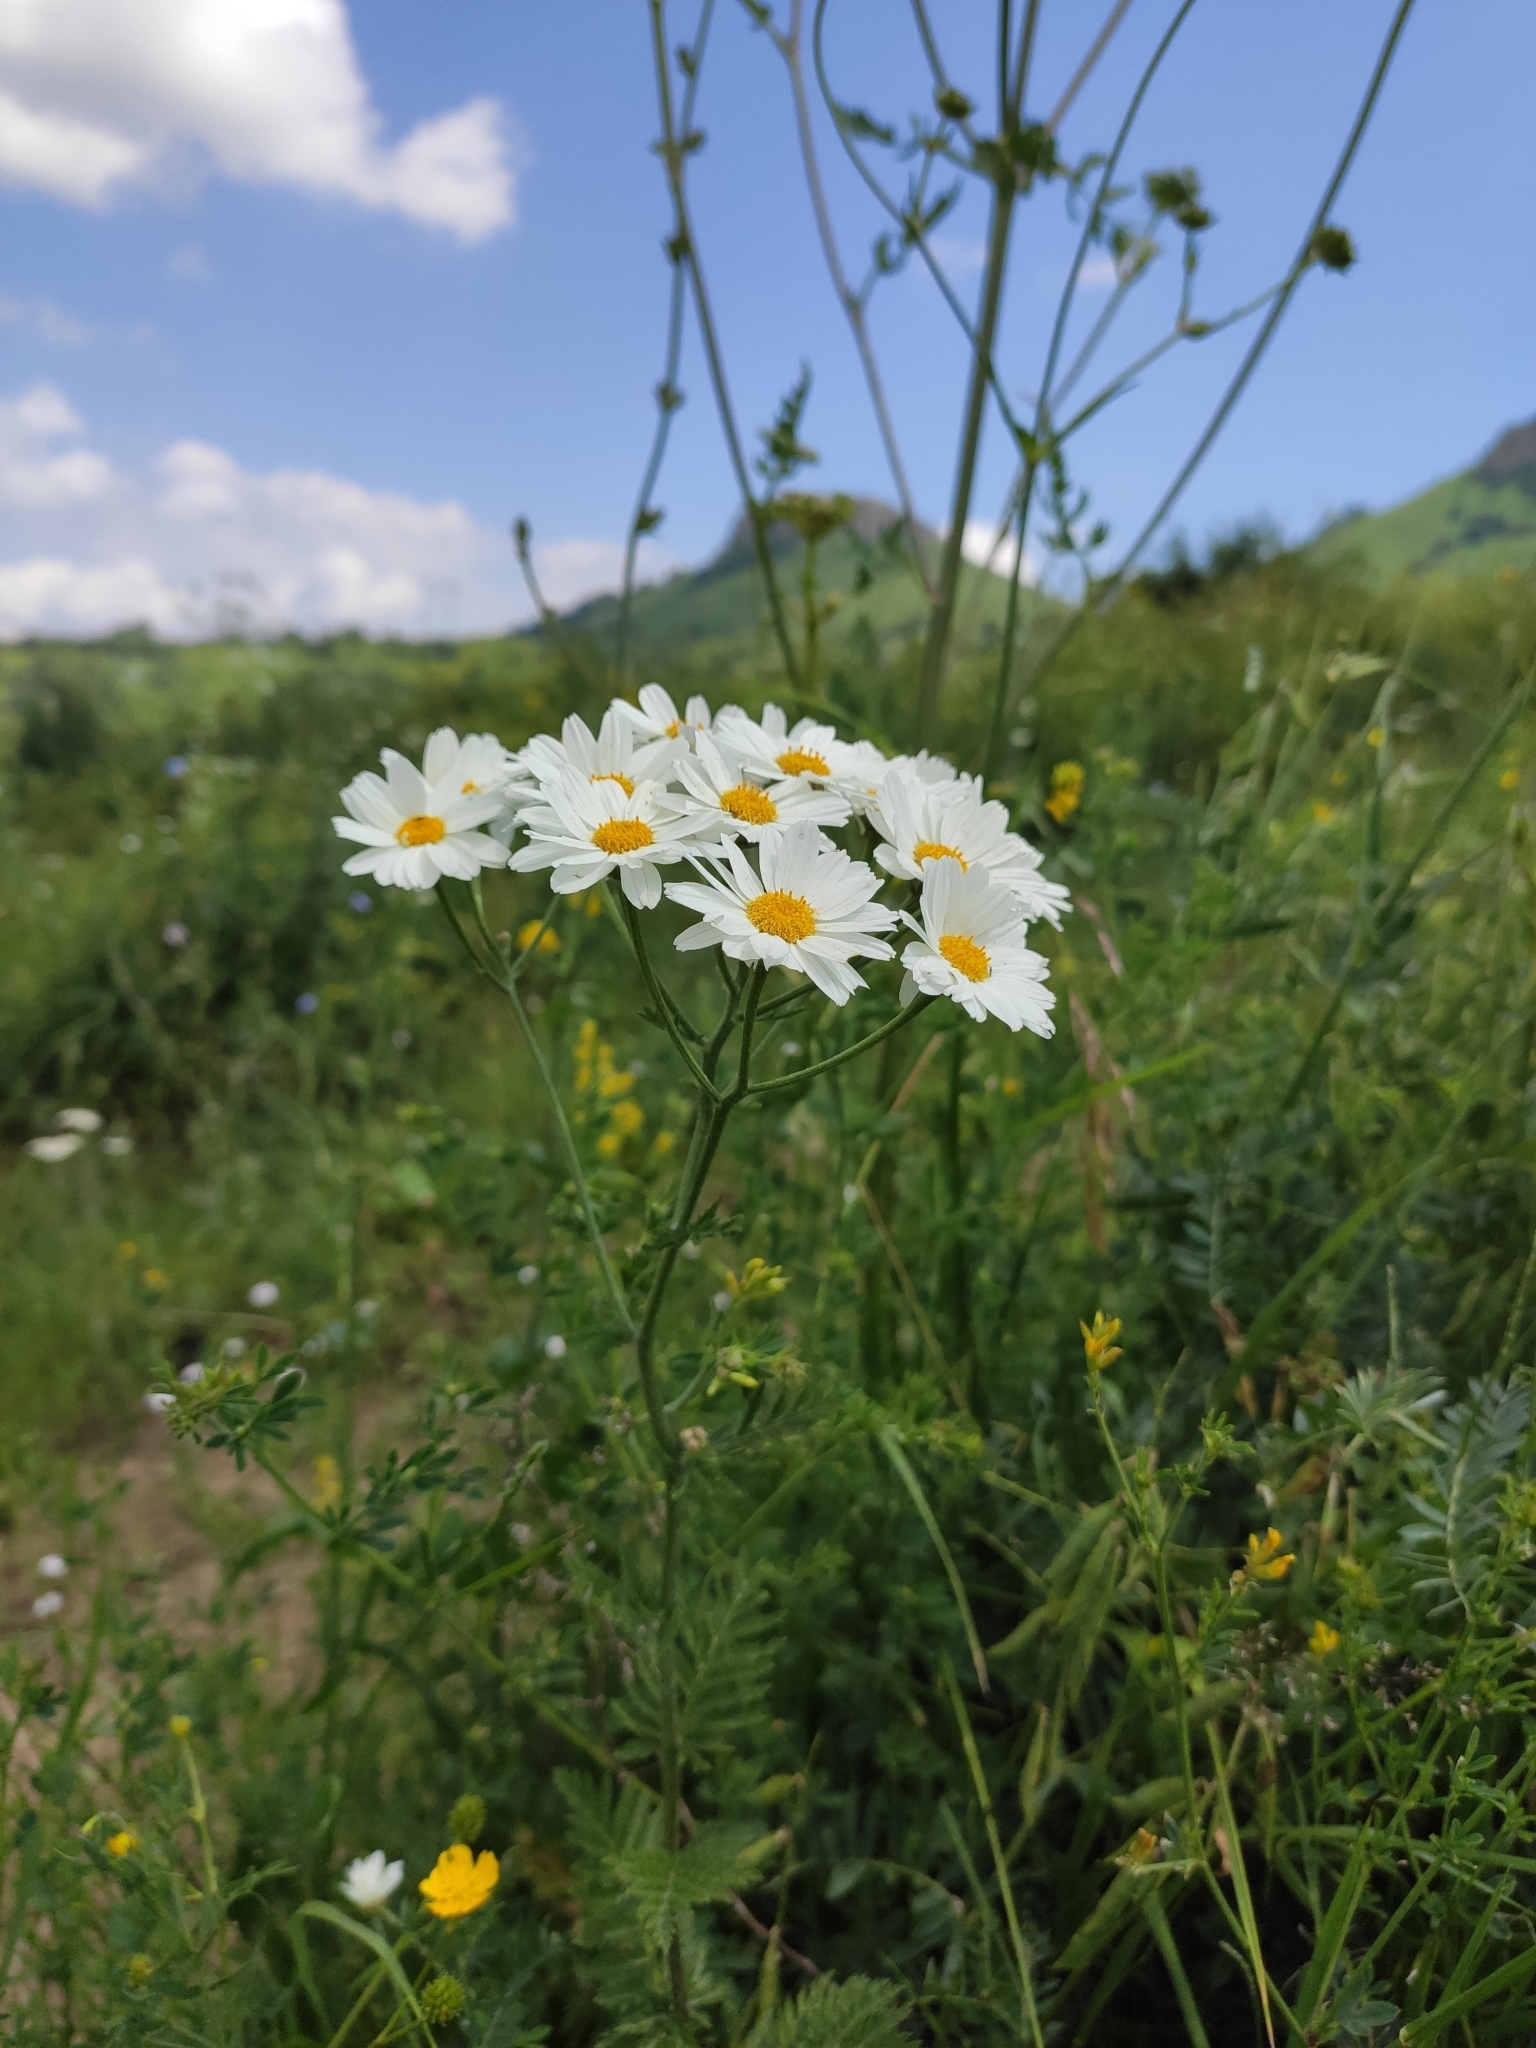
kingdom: Plantae
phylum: Tracheophyta
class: Magnoliopsida
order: Asterales
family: Asteraceae
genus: Tanacetum
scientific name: Tanacetum corymbosum
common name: Scentless feverfew
